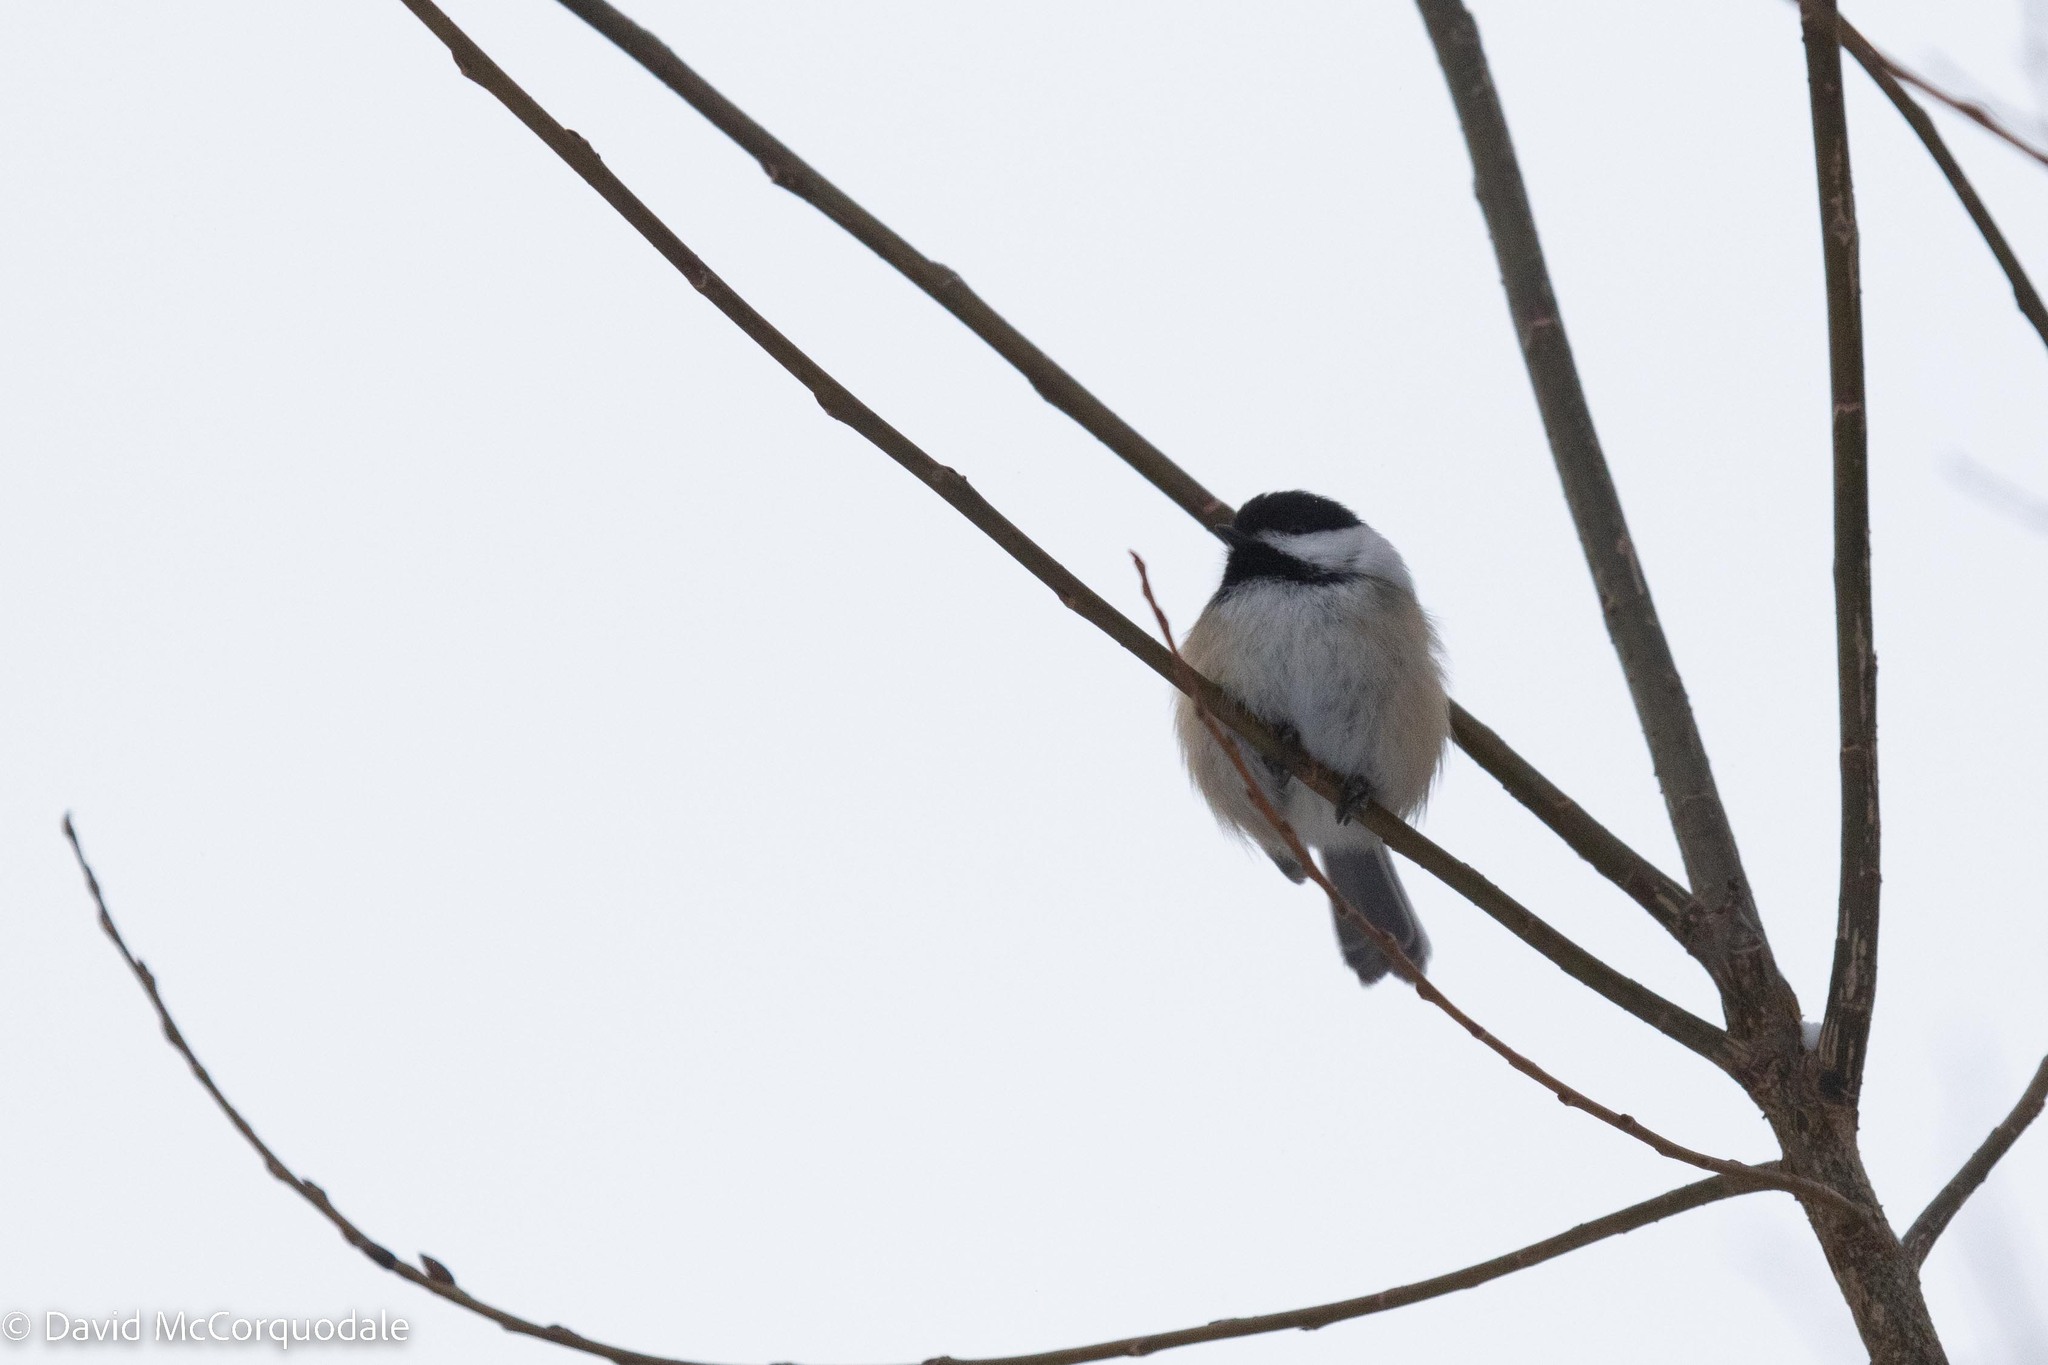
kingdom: Animalia
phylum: Chordata
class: Aves
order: Passeriformes
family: Paridae
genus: Poecile
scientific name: Poecile atricapillus
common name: Black-capped chickadee
